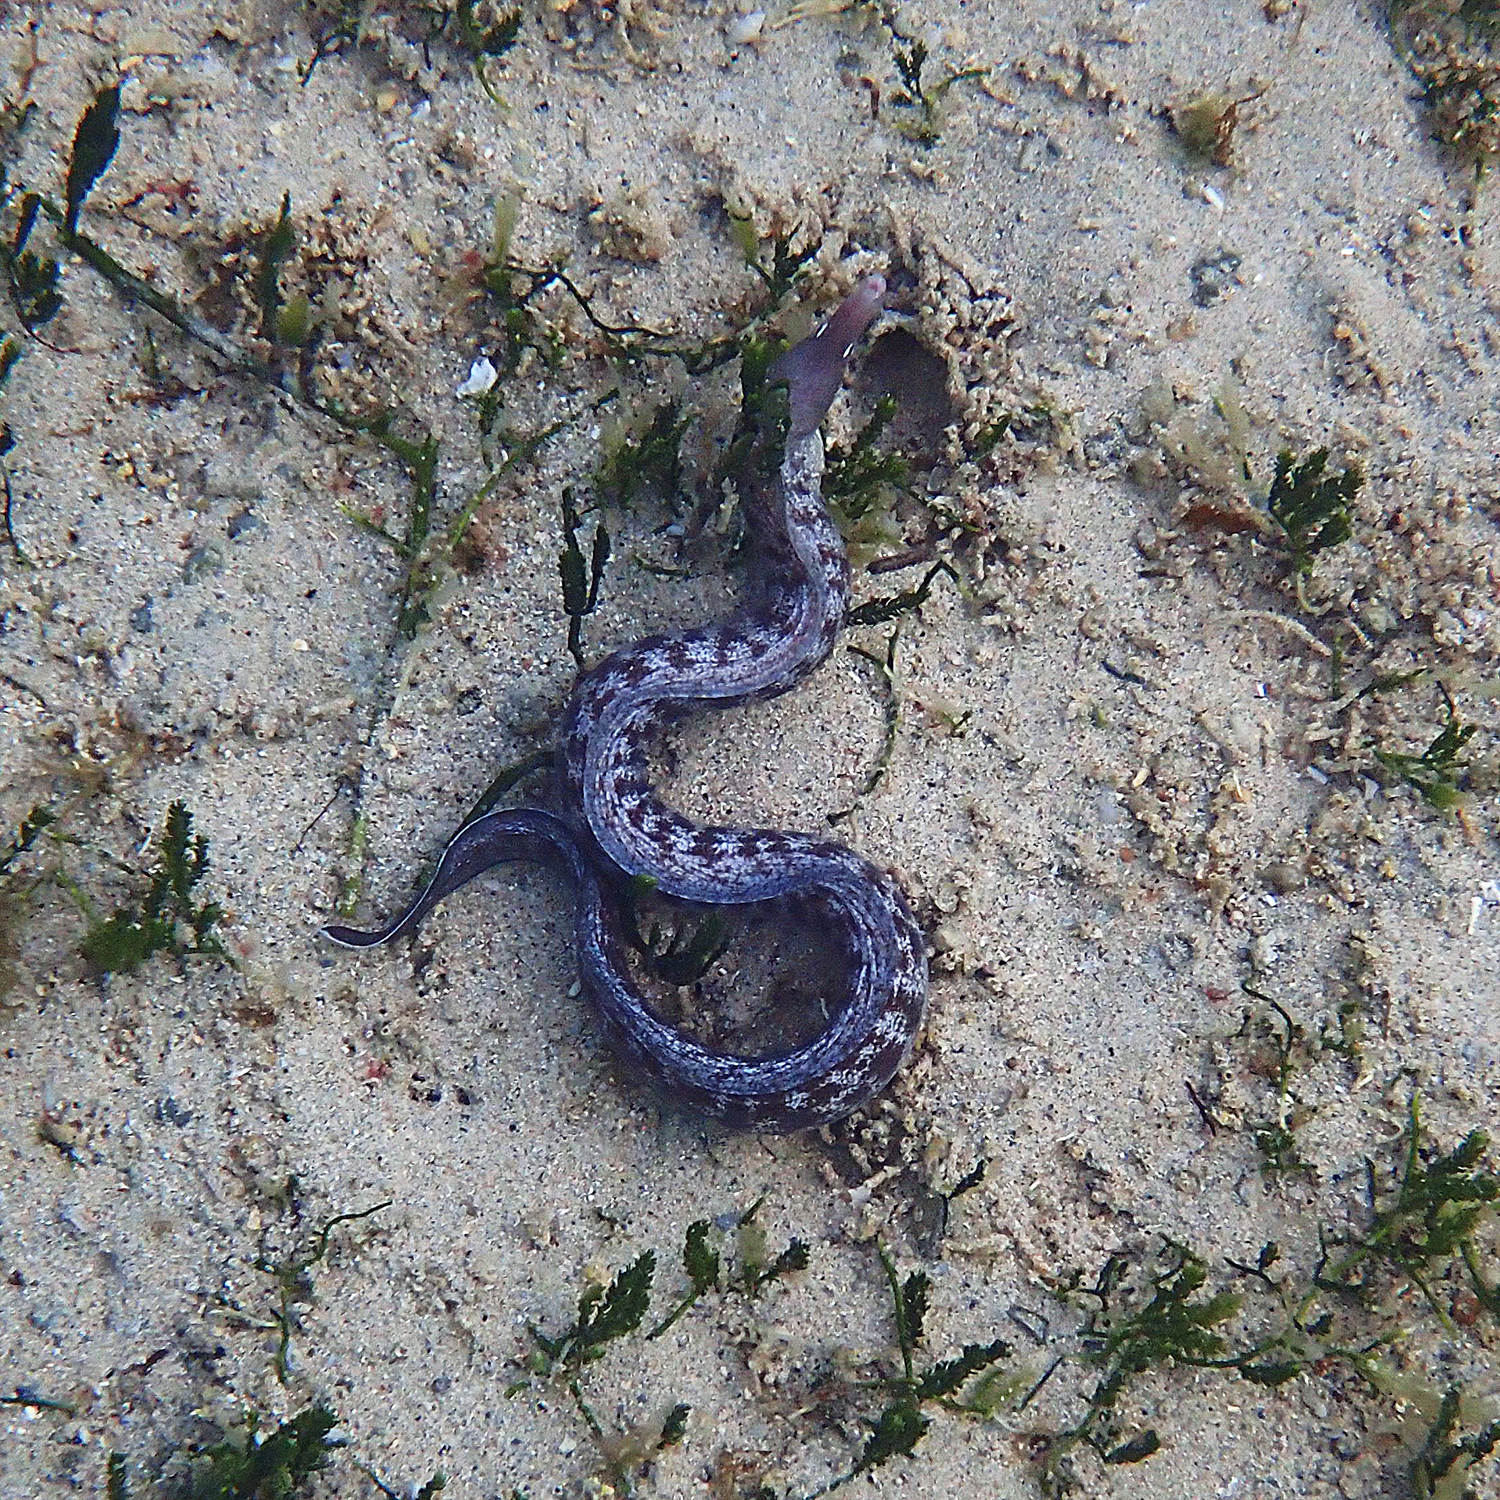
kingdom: Animalia
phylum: Chordata
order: Anguilliformes
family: Muraenidae
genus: Gymnothorax
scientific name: Gymnothorax nubilus
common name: Grey moray
